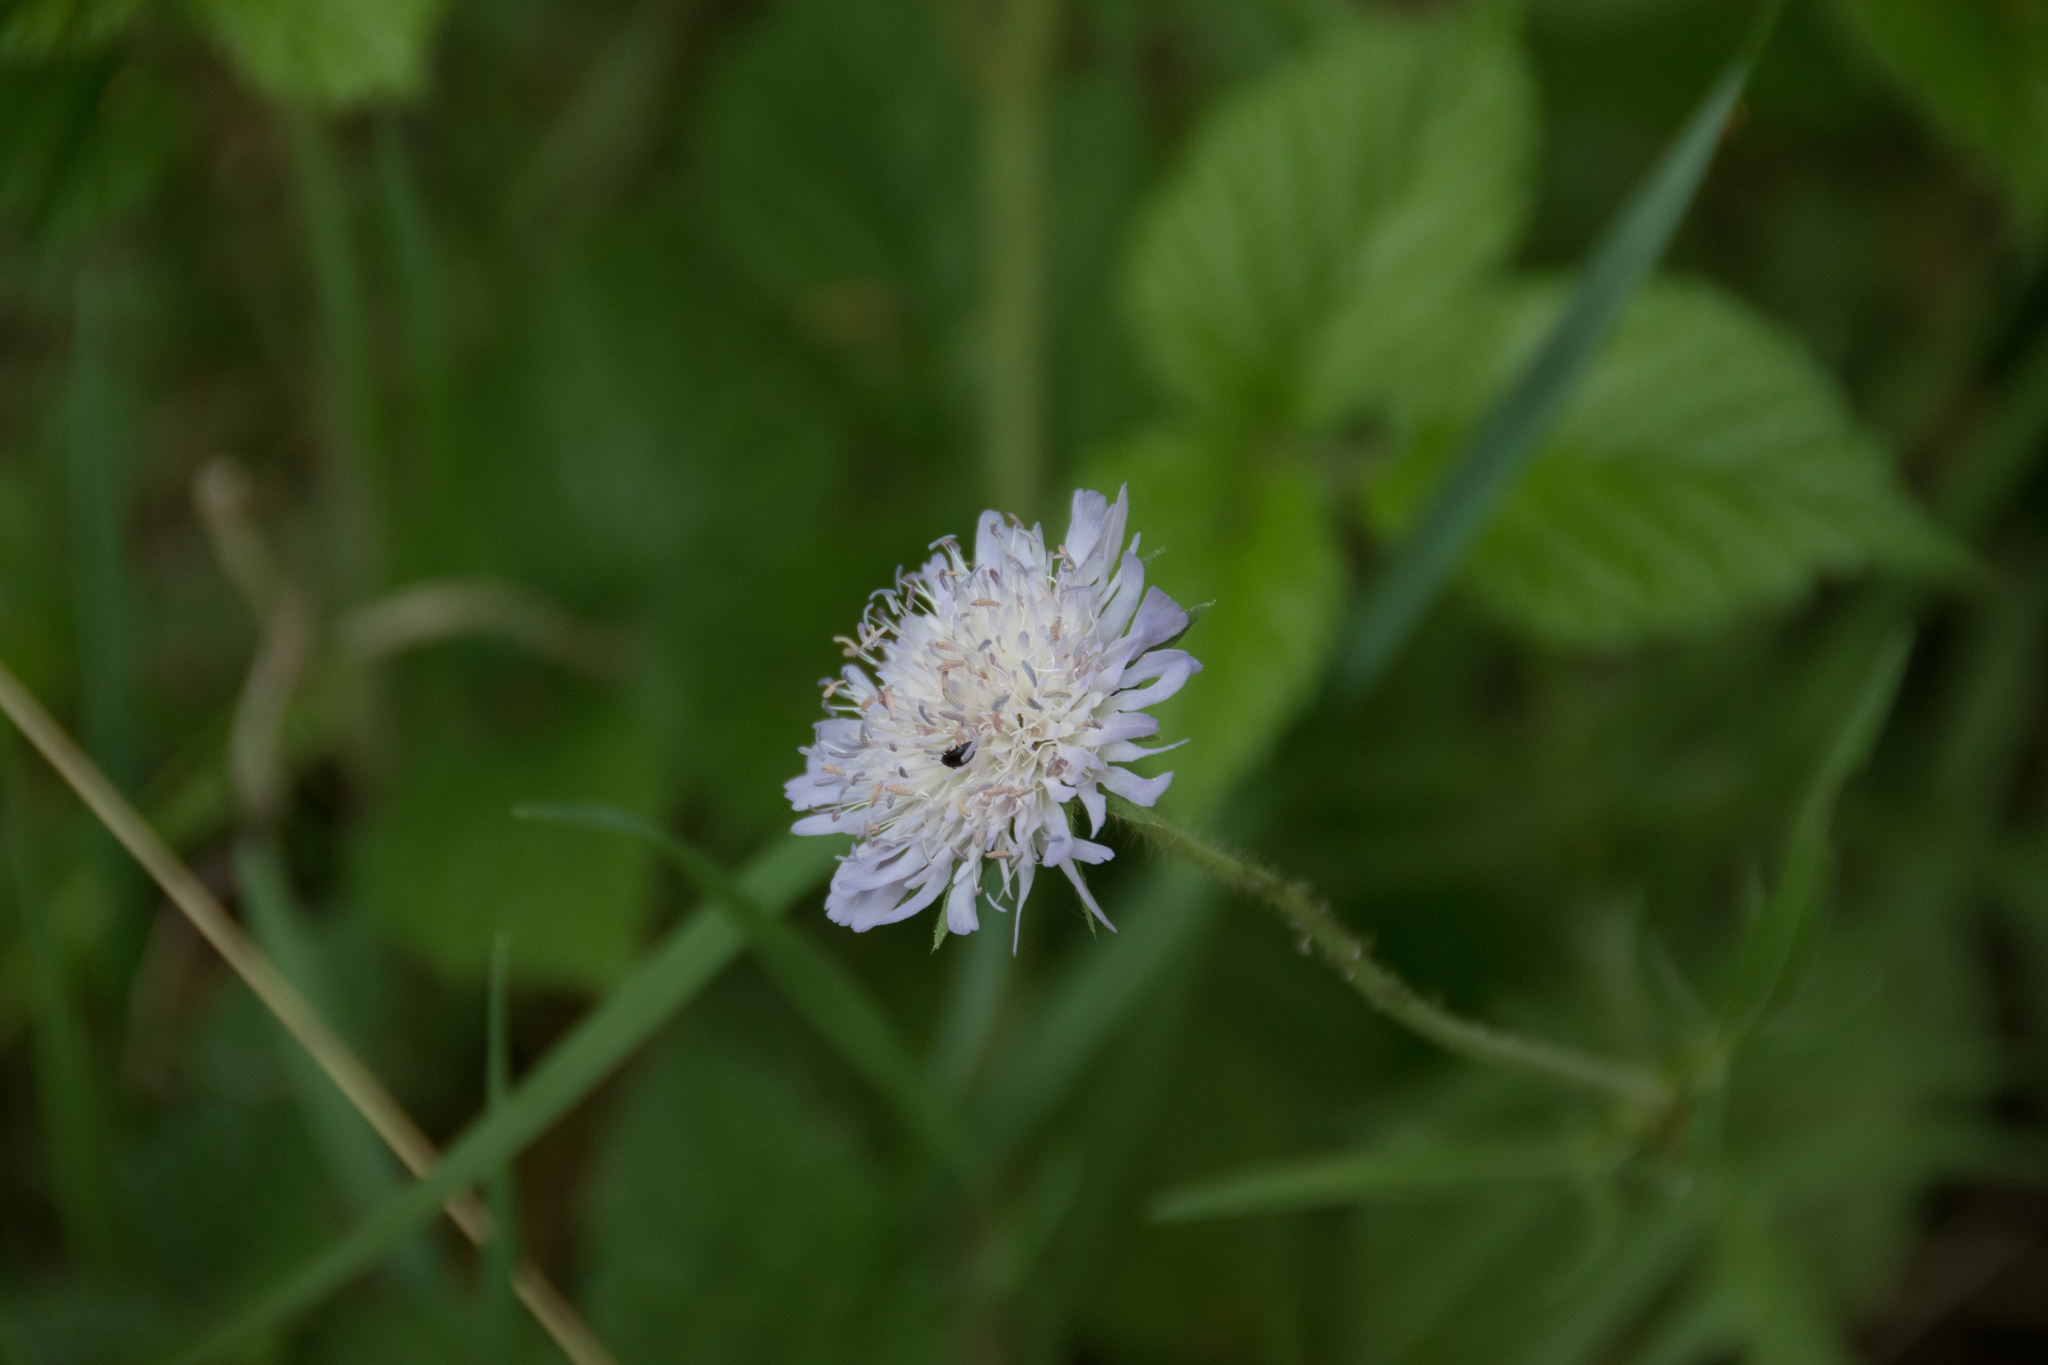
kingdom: Plantae
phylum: Tracheophyta
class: Magnoliopsida
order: Dipsacales
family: Caprifoliaceae
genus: Knautia
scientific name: Knautia arvensis
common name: Field scabiosa
